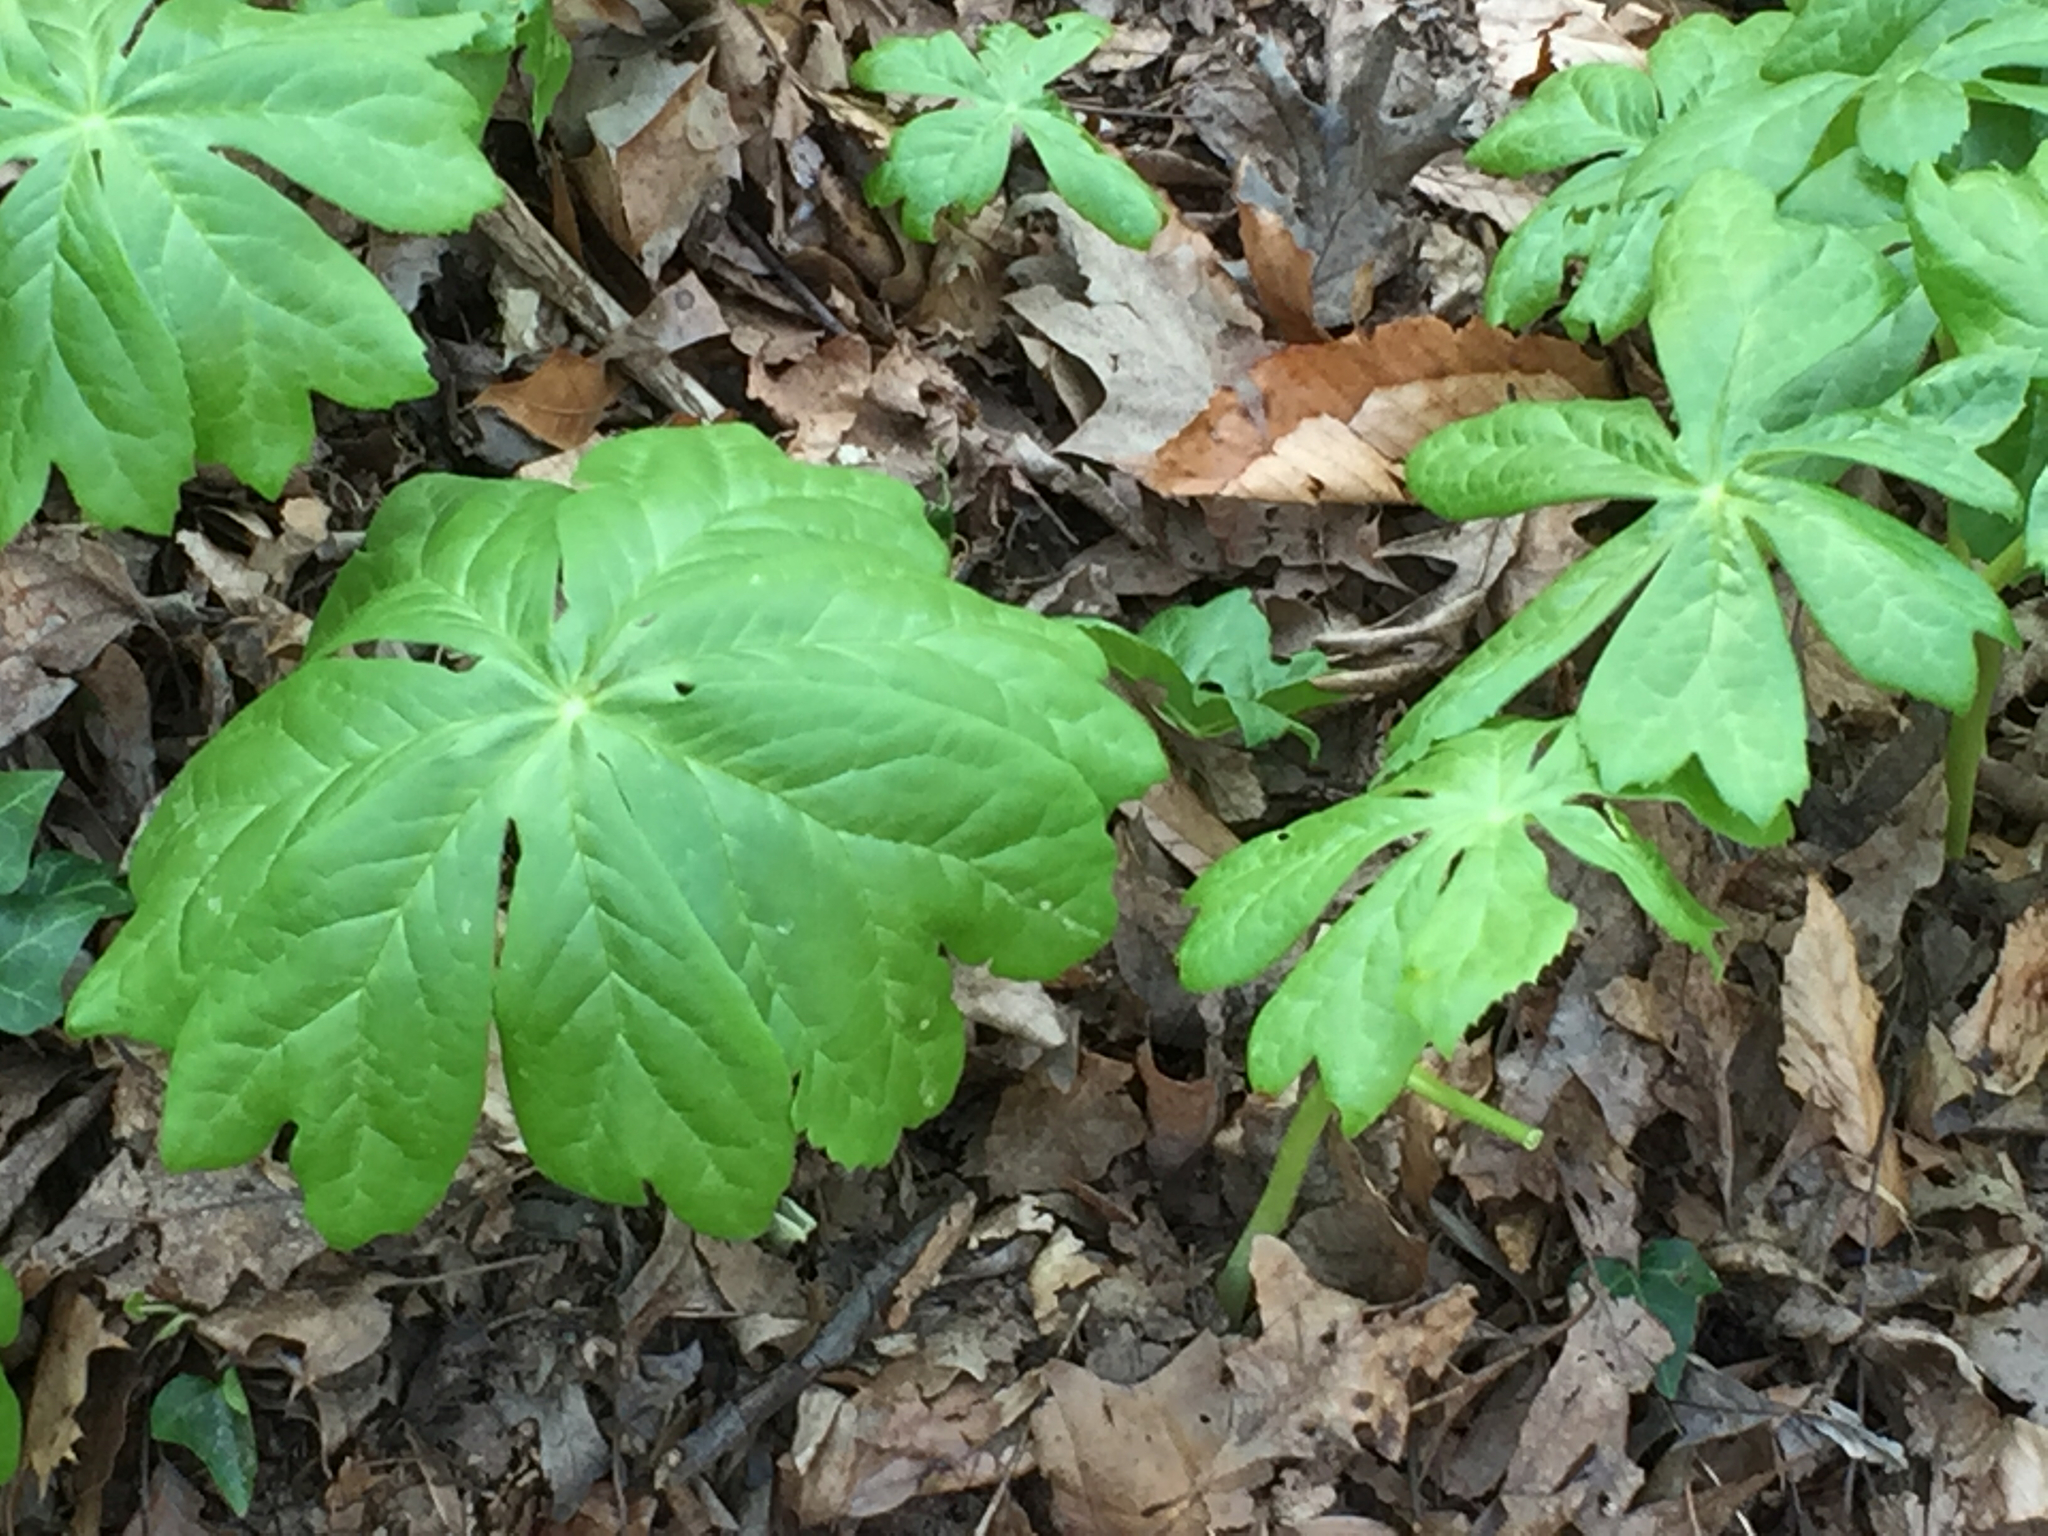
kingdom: Plantae
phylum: Tracheophyta
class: Magnoliopsida
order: Ranunculales
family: Berberidaceae
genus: Podophyllum
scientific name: Podophyllum peltatum
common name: Wild mandrake
